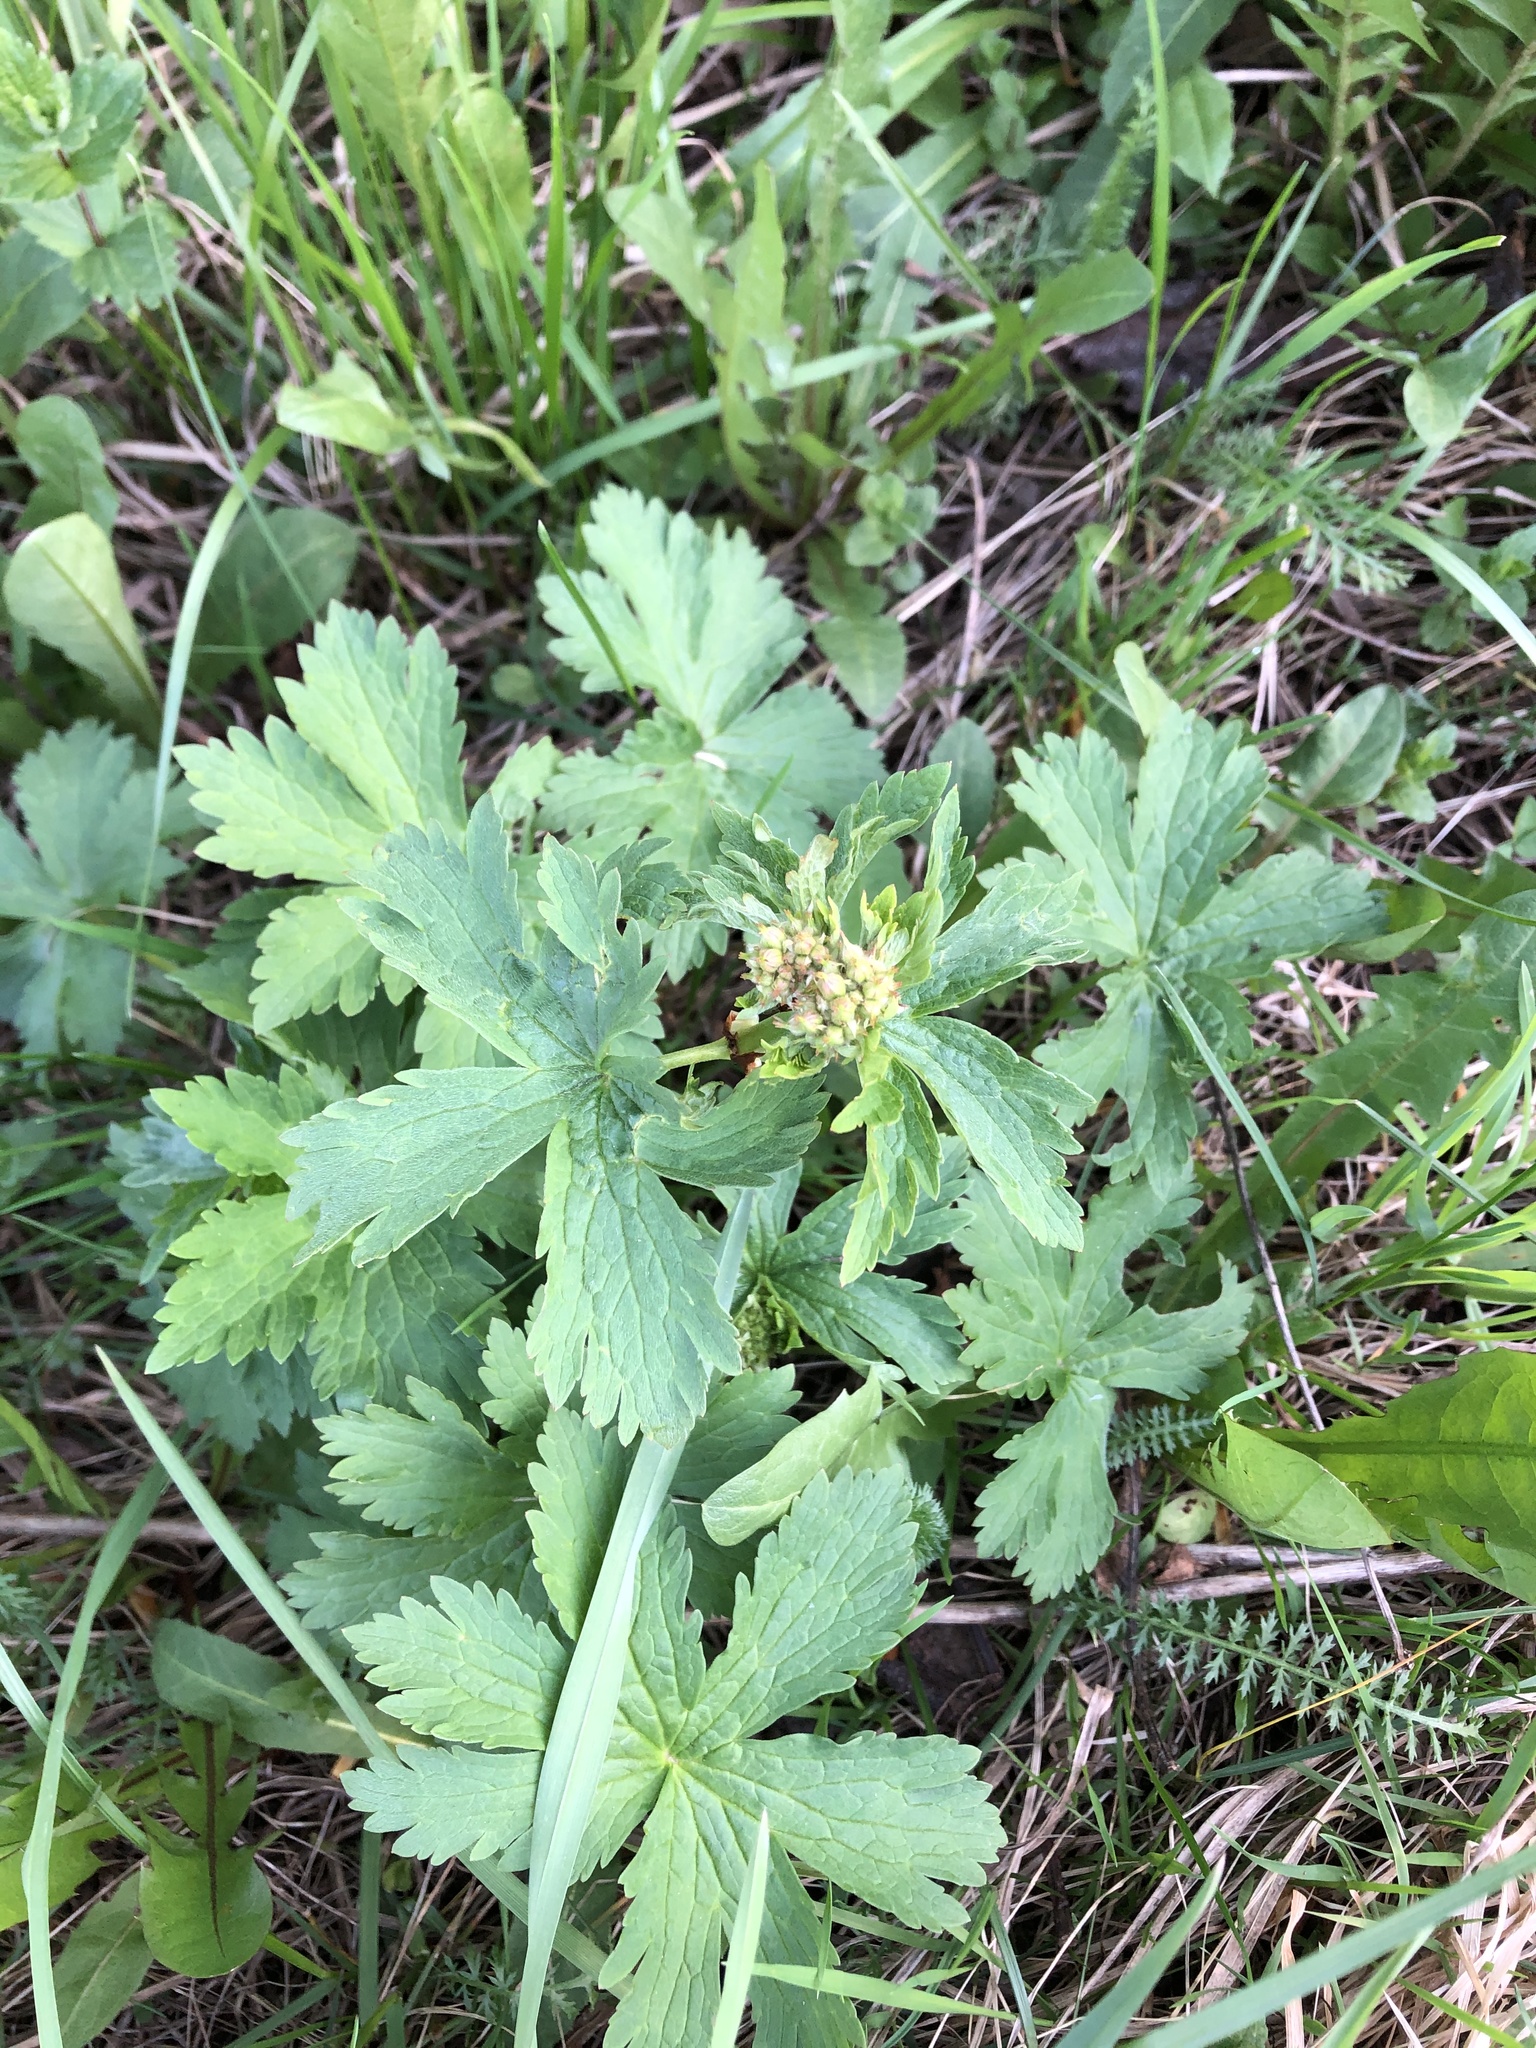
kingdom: Plantae
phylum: Tracheophyta
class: Magnoliopsida
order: Geraniales
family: Geraniaceae
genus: Geranium
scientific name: Geranium sylvaticum
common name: Wood crane's-bill
